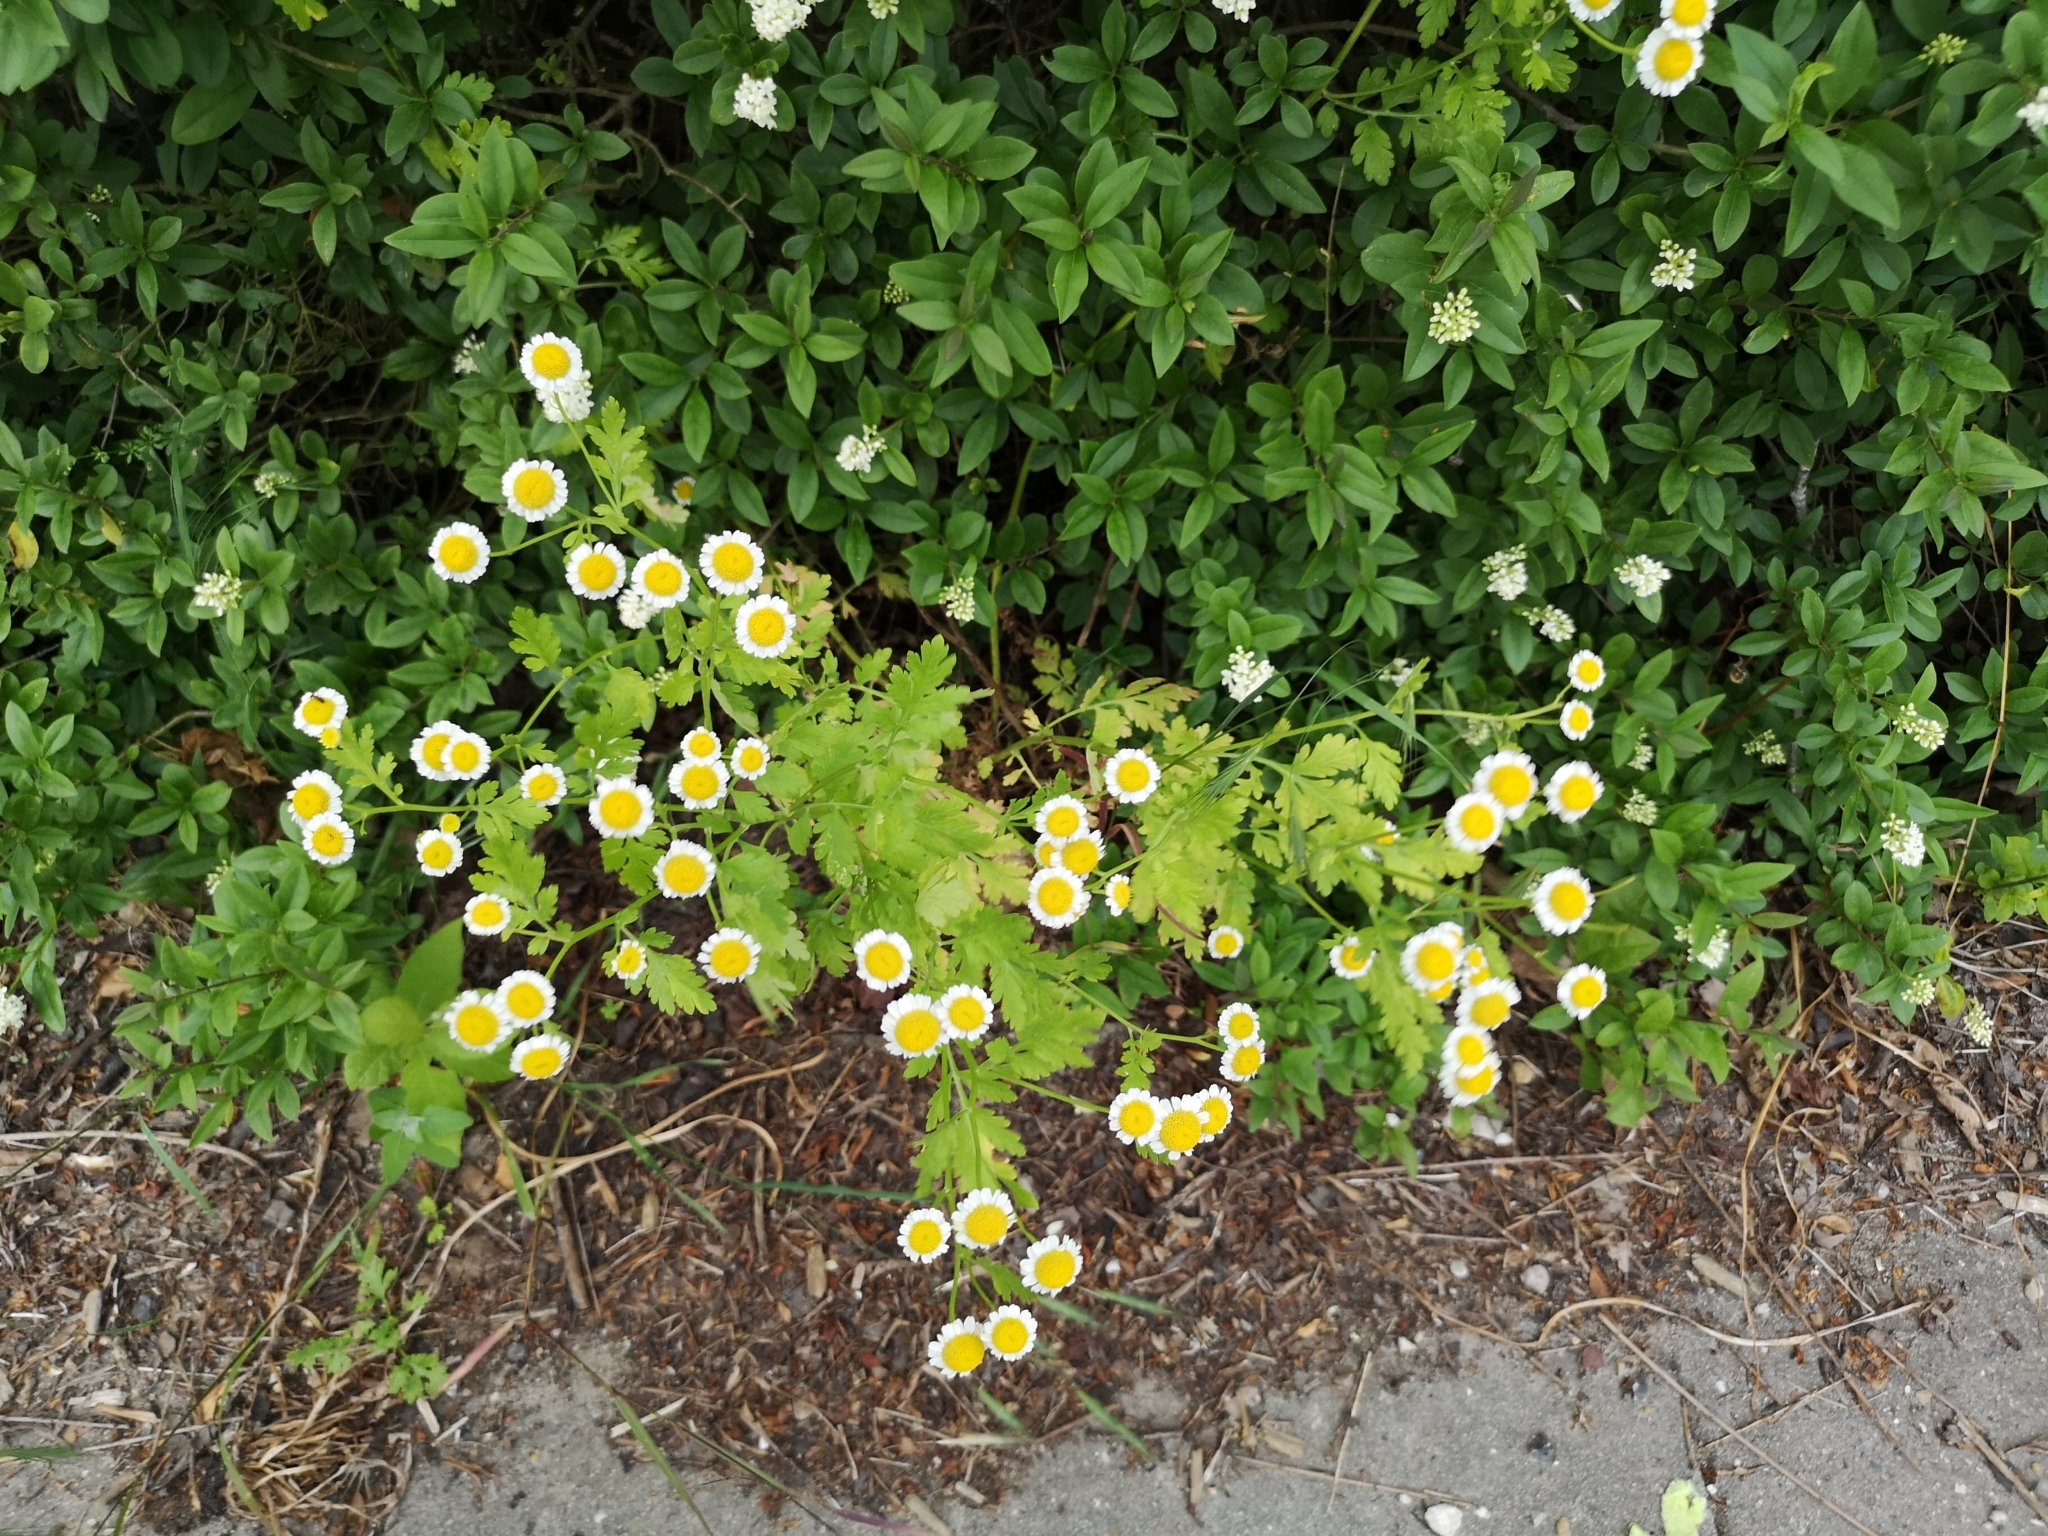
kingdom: Plantae
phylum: Tracheophyta
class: Magnoliopsida
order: Asterales
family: Asteraceae
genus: Tanacetum
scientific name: Tanacetum parthenium
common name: Feverfew
